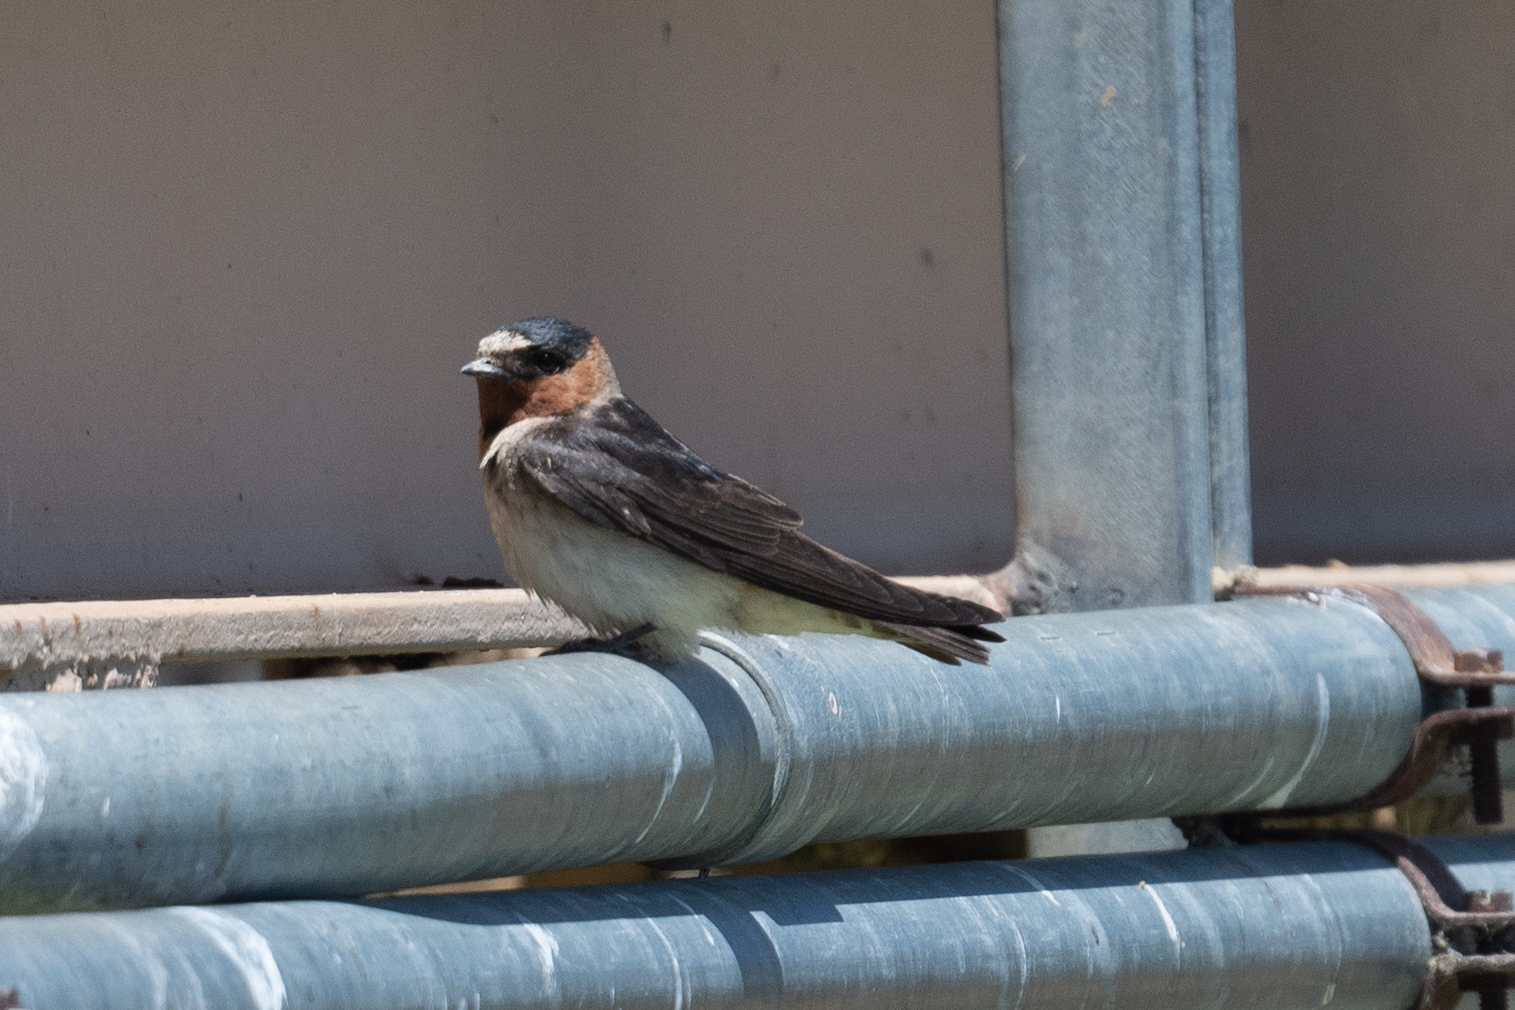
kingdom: Animalia
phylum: Chordata
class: Aves
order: Passeriformes
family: Hirundinidae
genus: Petrochelidon
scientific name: Petrochelidon pyrrhonota
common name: American cliff swallow
